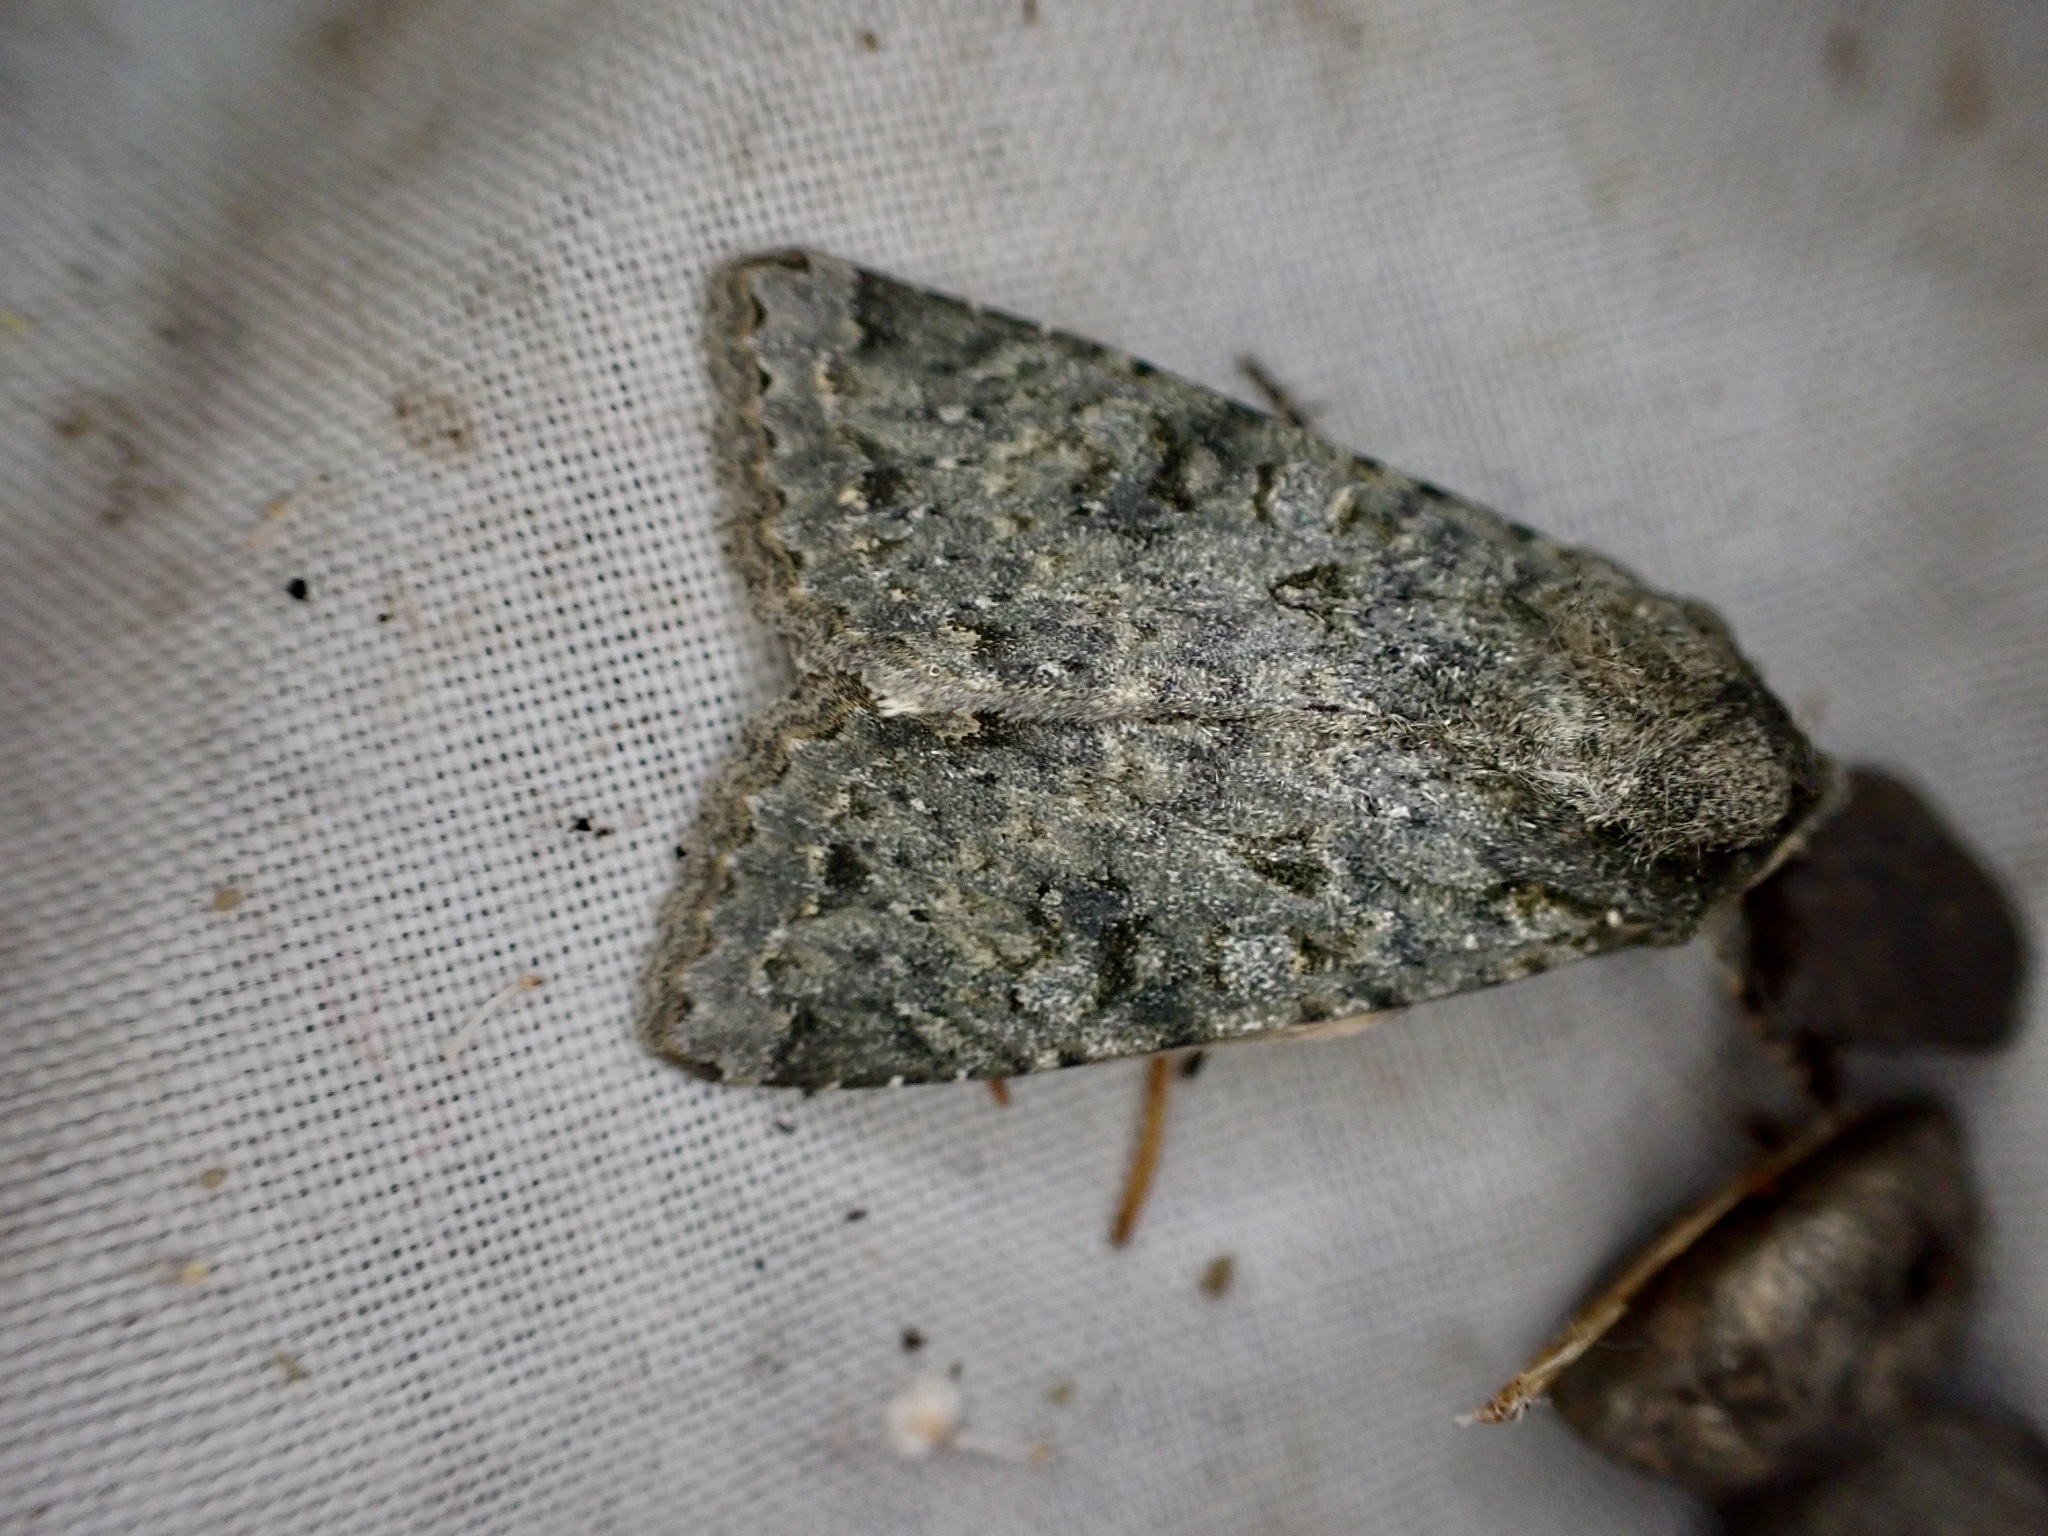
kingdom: Animalia
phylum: Arthropoda
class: Insecta
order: Lepidoptera
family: Noctuidae
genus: Ichneutica
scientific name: Ichneutica
